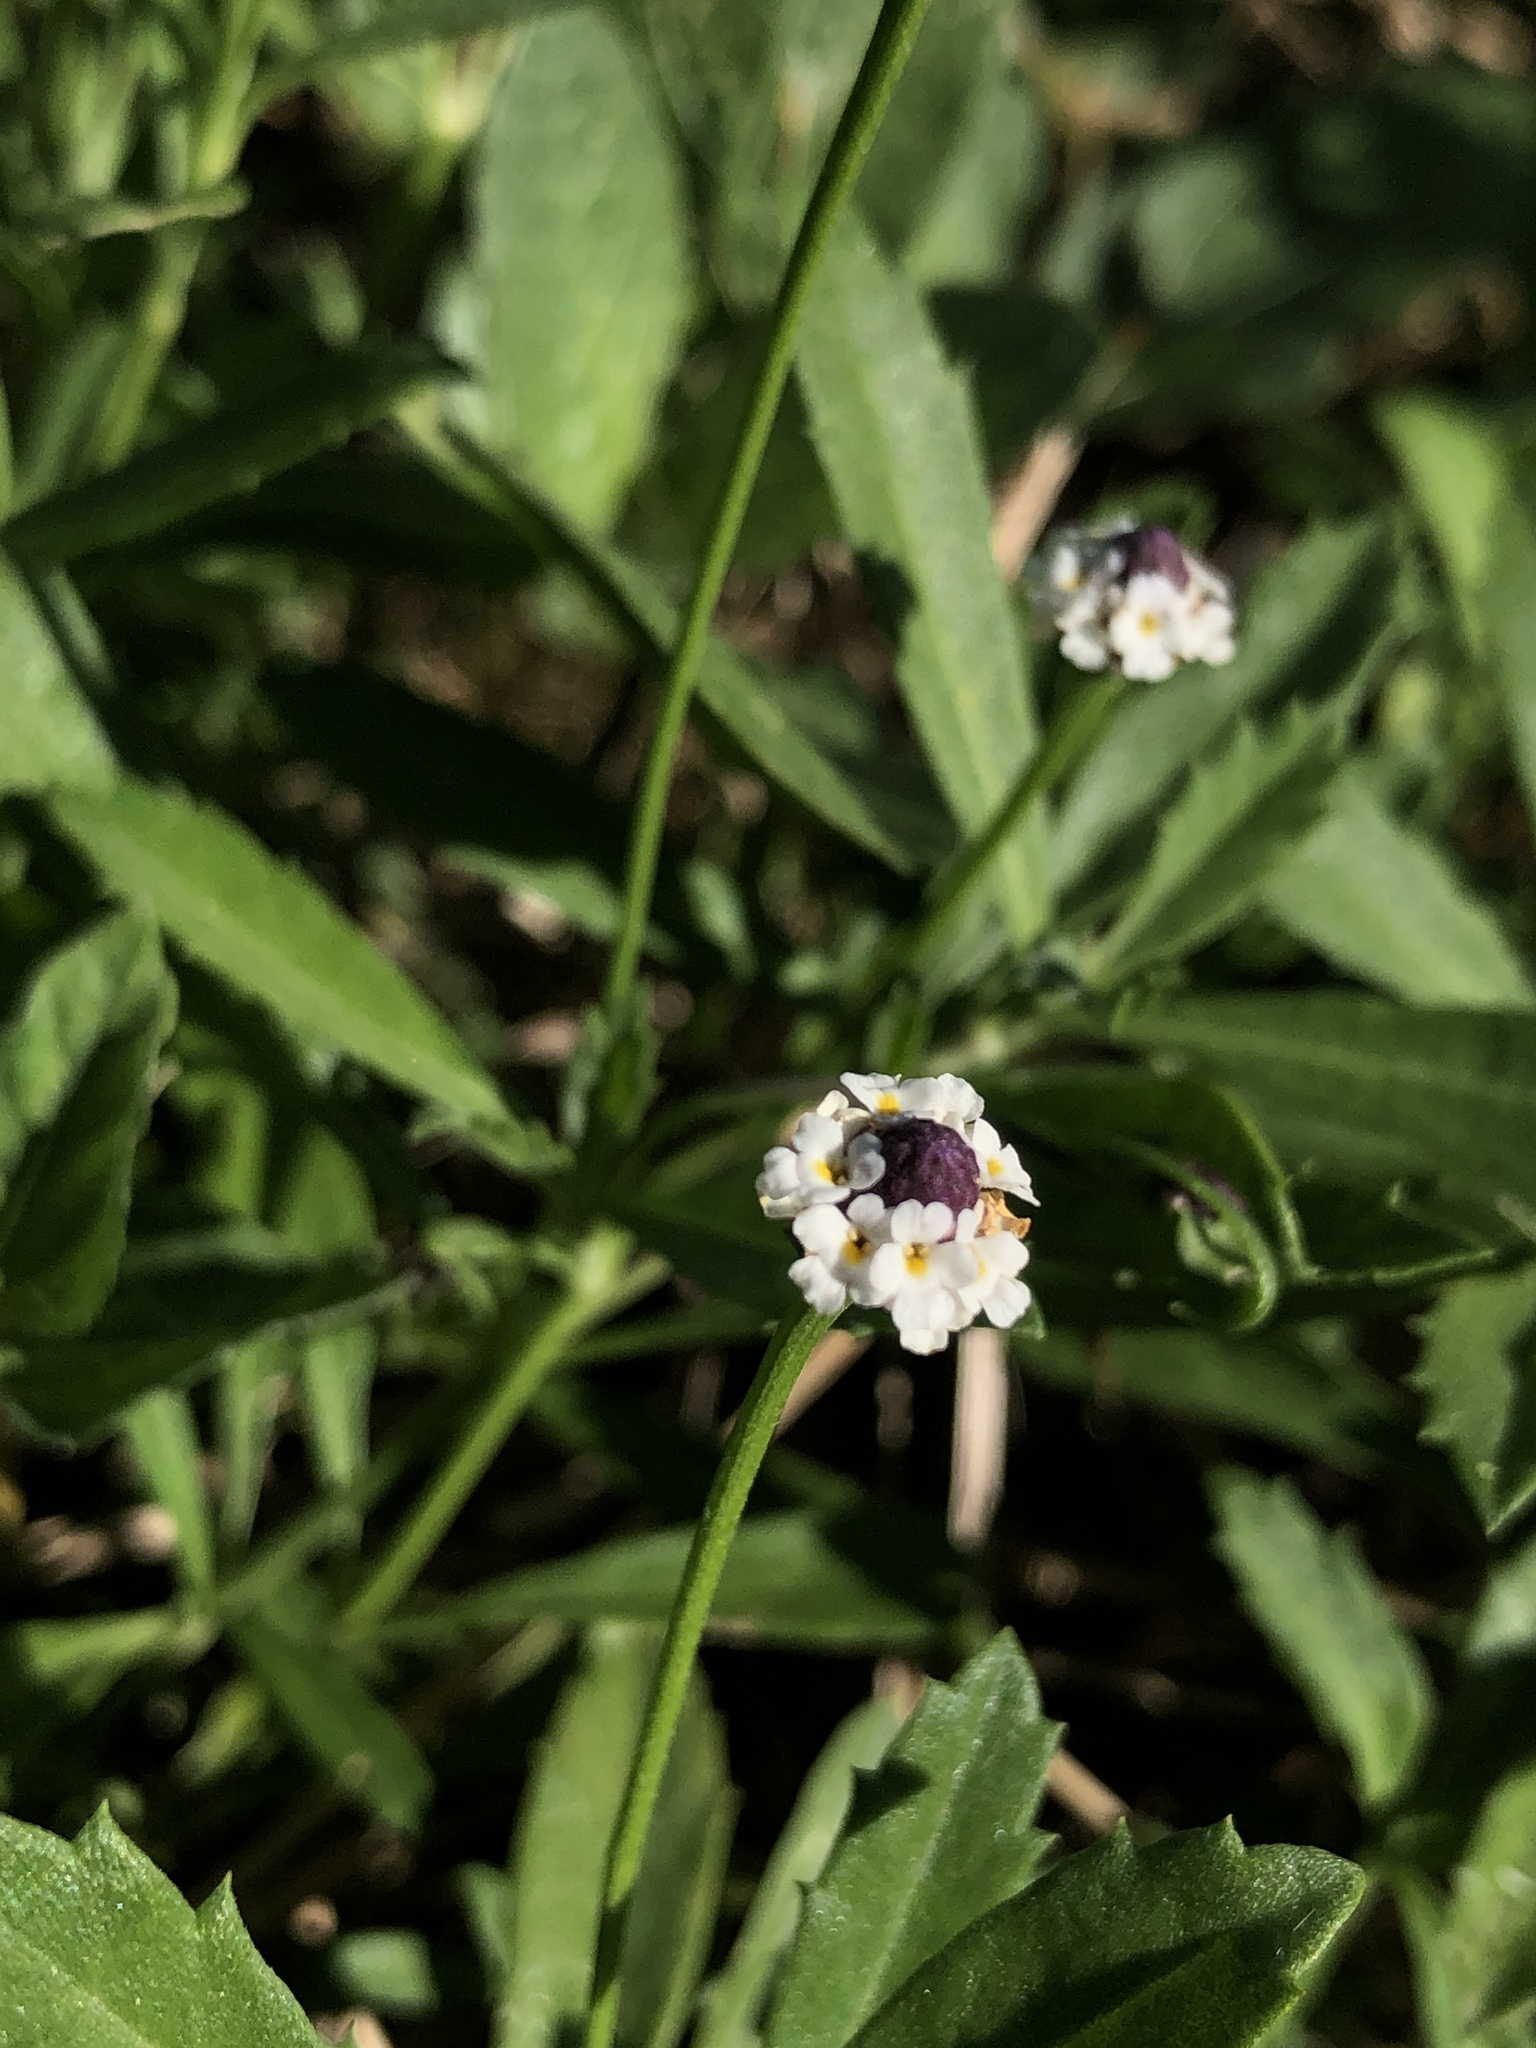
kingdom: Plantae
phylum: Tracheophyta
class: Magnoliopsida
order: Lamiales
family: Verbenaceae
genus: Phyla
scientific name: Phyla nodiflora
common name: Frogfruit
